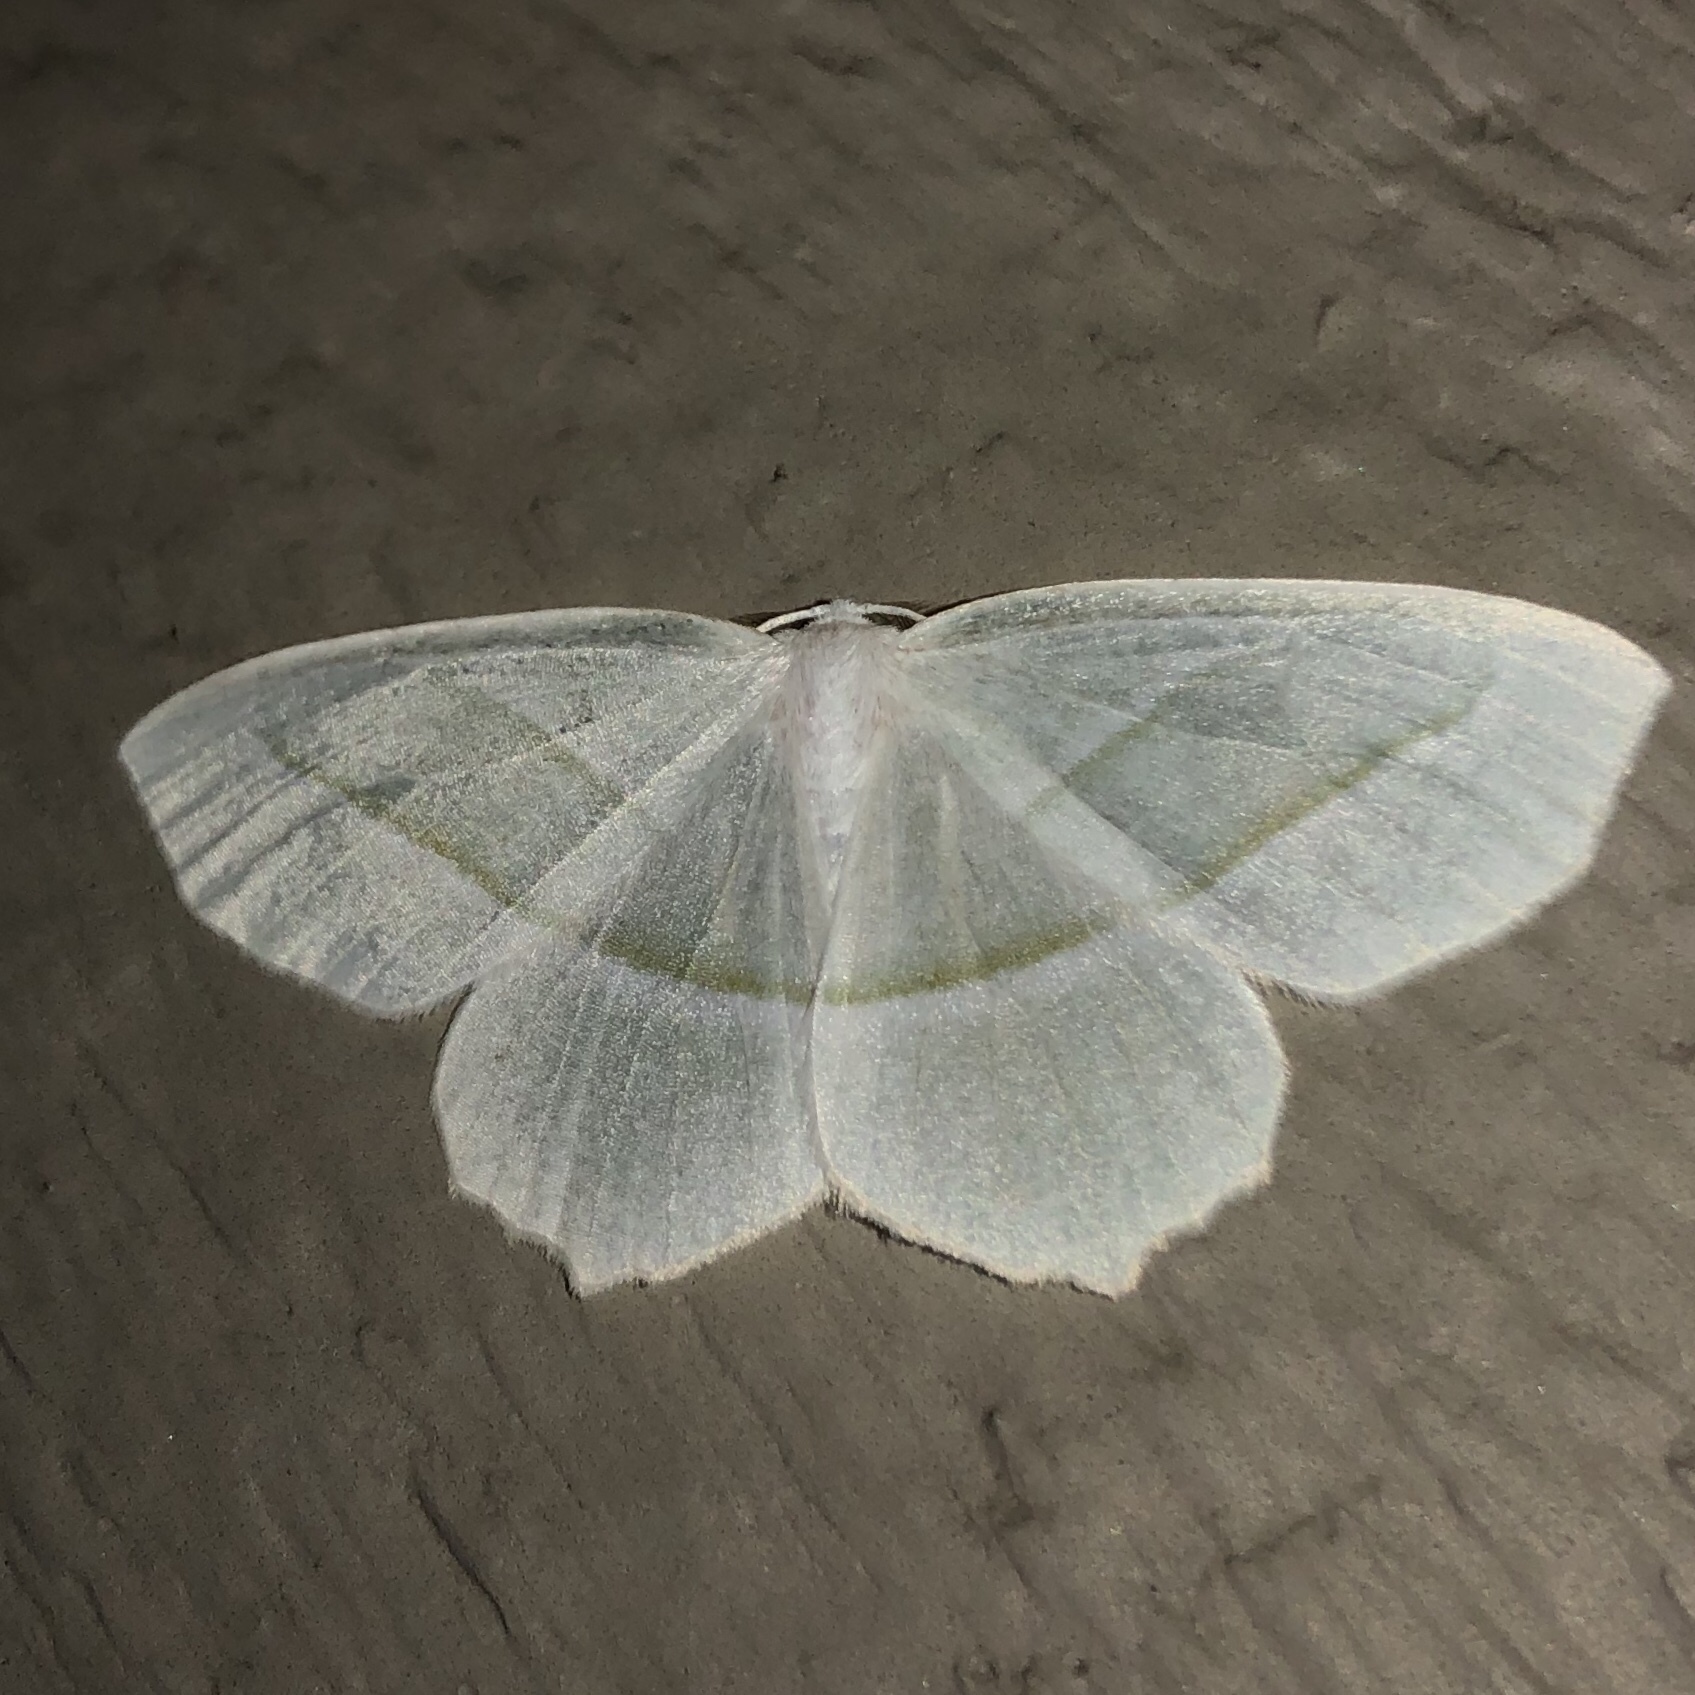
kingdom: Animalia
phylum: Arthropoda
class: Insecta
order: Lepidoptera
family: Geometridae
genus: Campaea
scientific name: Campaea perlata
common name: Fringed looper
